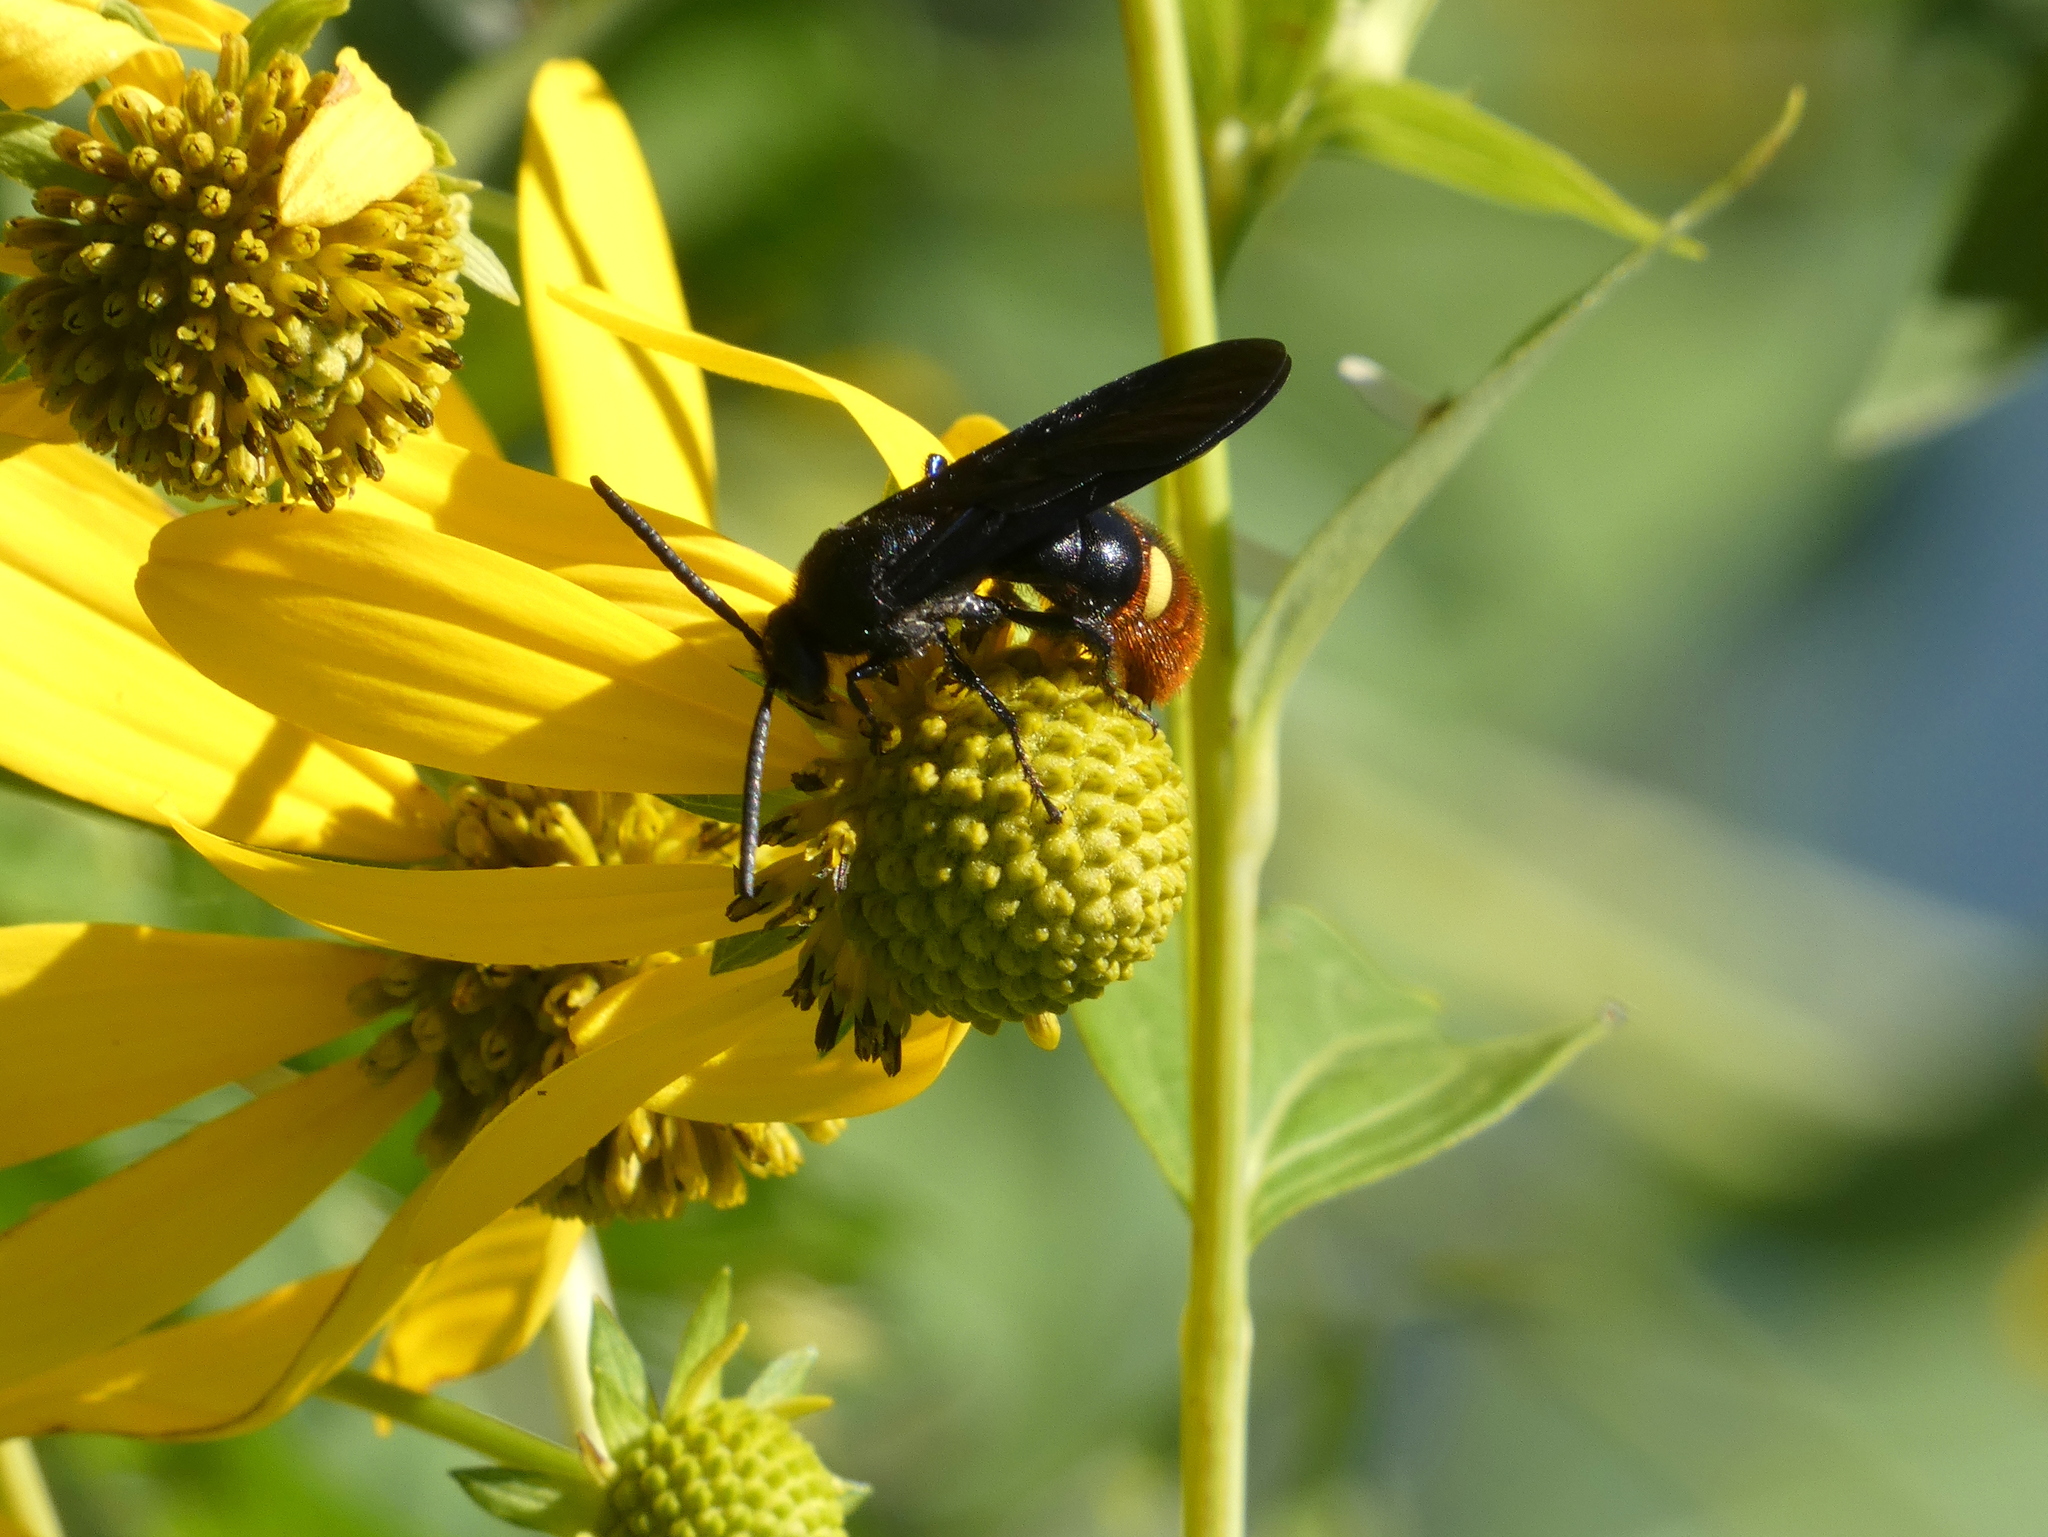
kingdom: Animalia
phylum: Arthropoda
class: Insecta
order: Hymenoptera
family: Scoliidae
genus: Scolia
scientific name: Scolia dubia
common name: Blue-winged scoliid wasp
